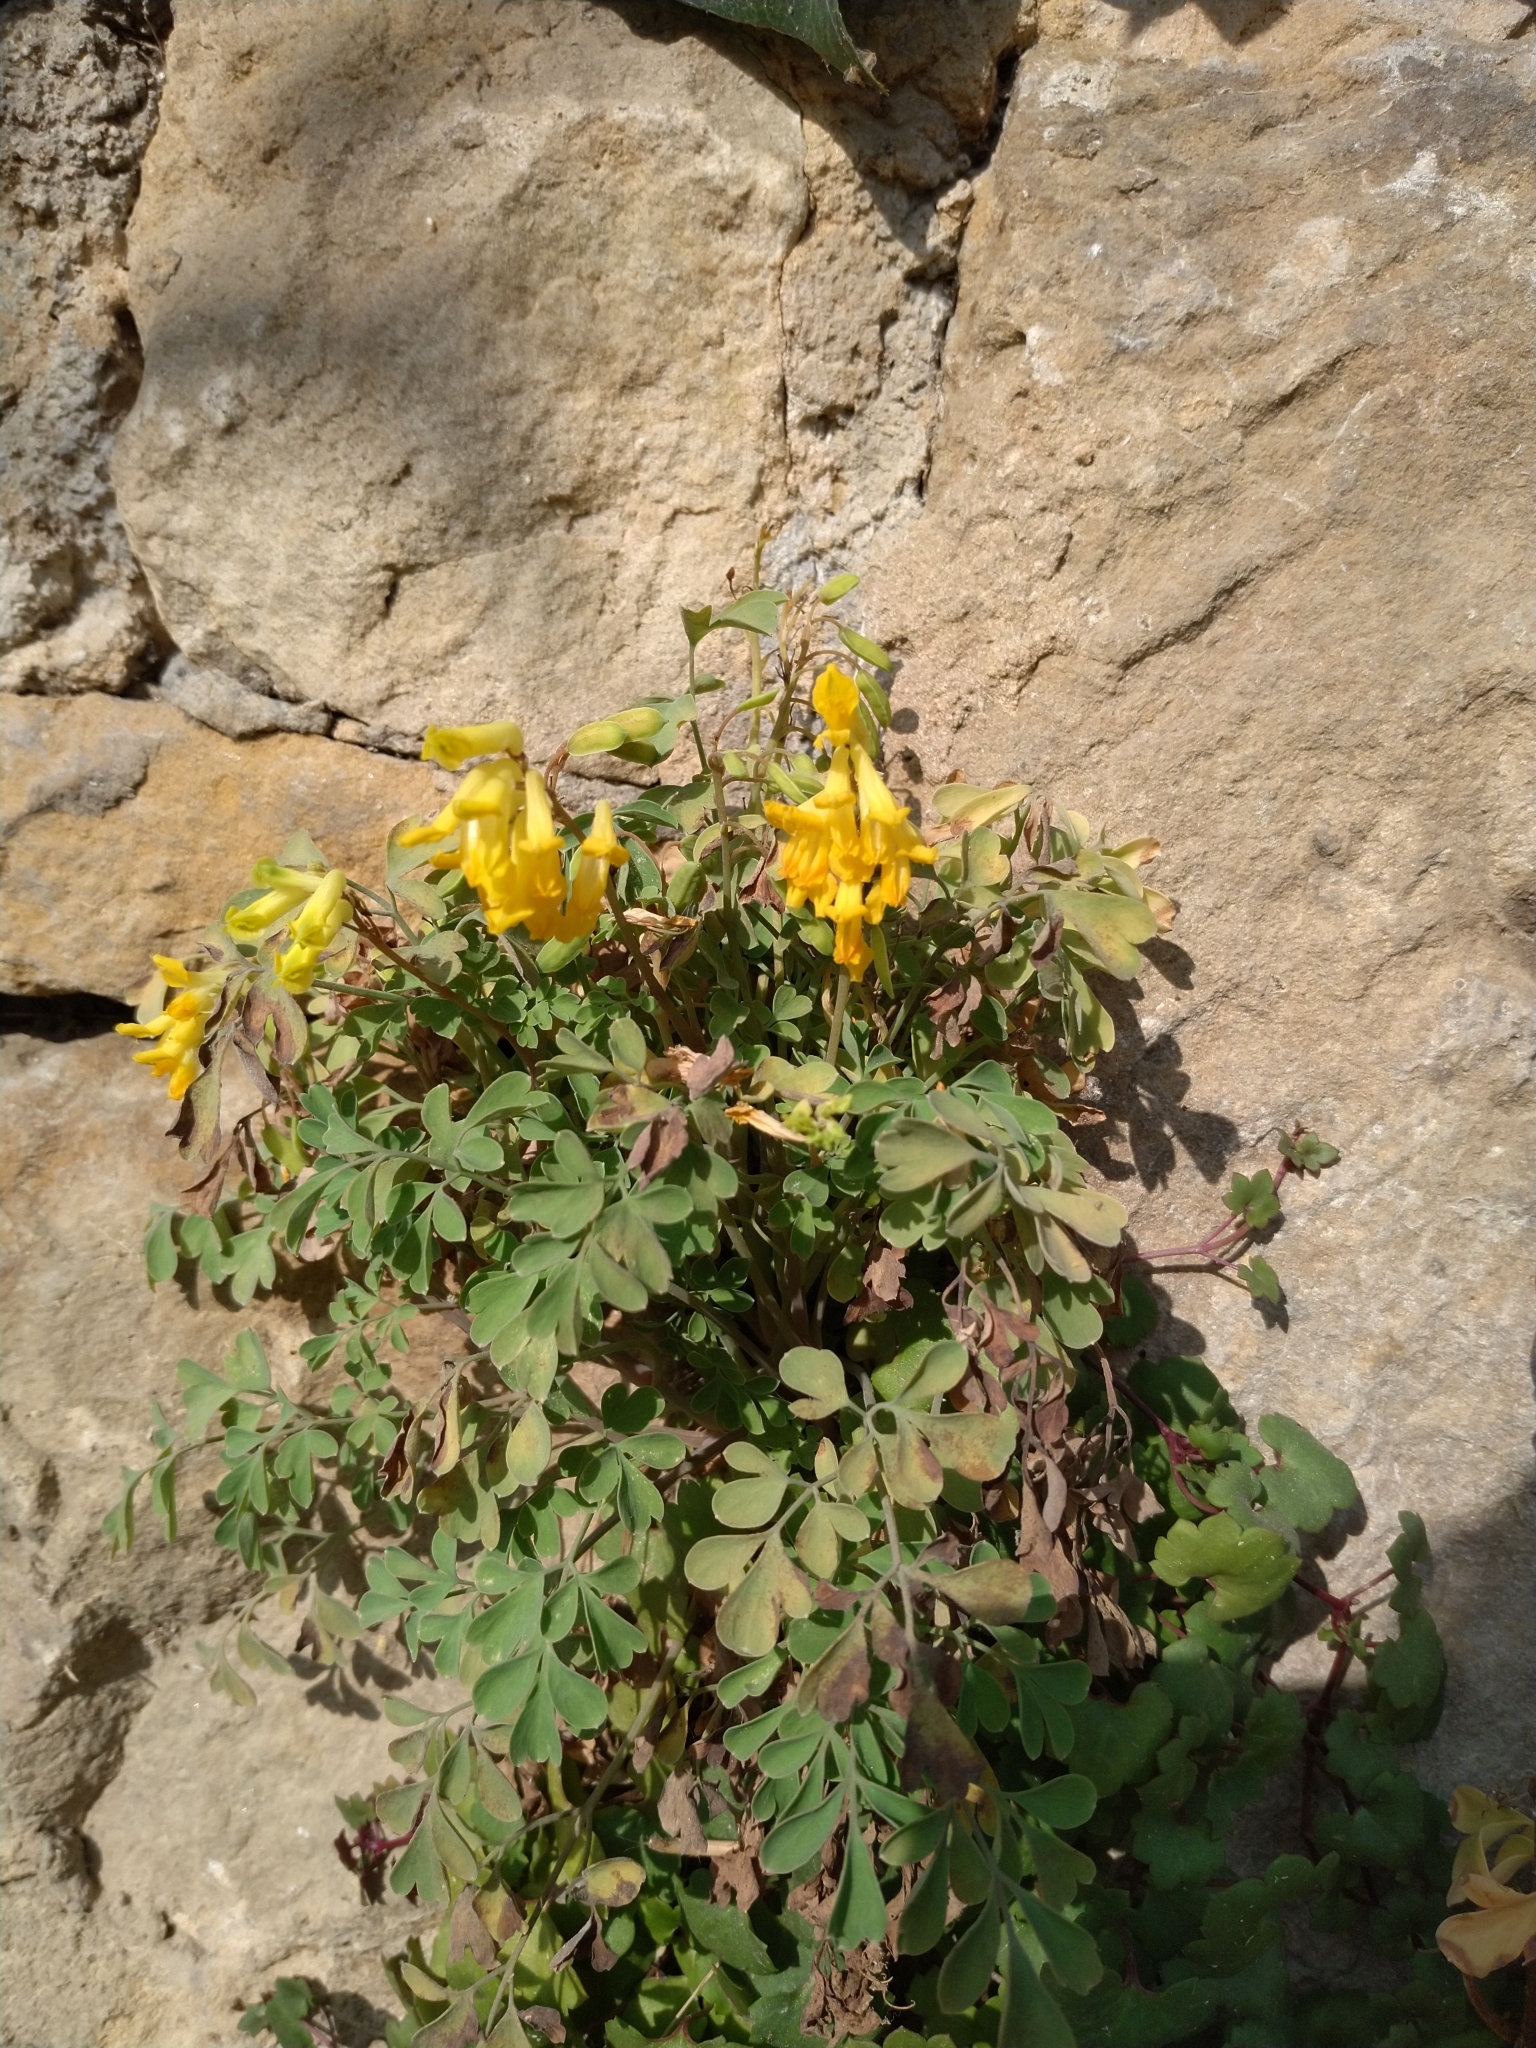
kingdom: Plantae
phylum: Tracheophyta
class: Magnoliopsida
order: Ranunculales
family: Papaveraceae
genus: Pseudofumaria
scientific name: Pseudofumaria lutea
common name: Yellow corydalis
